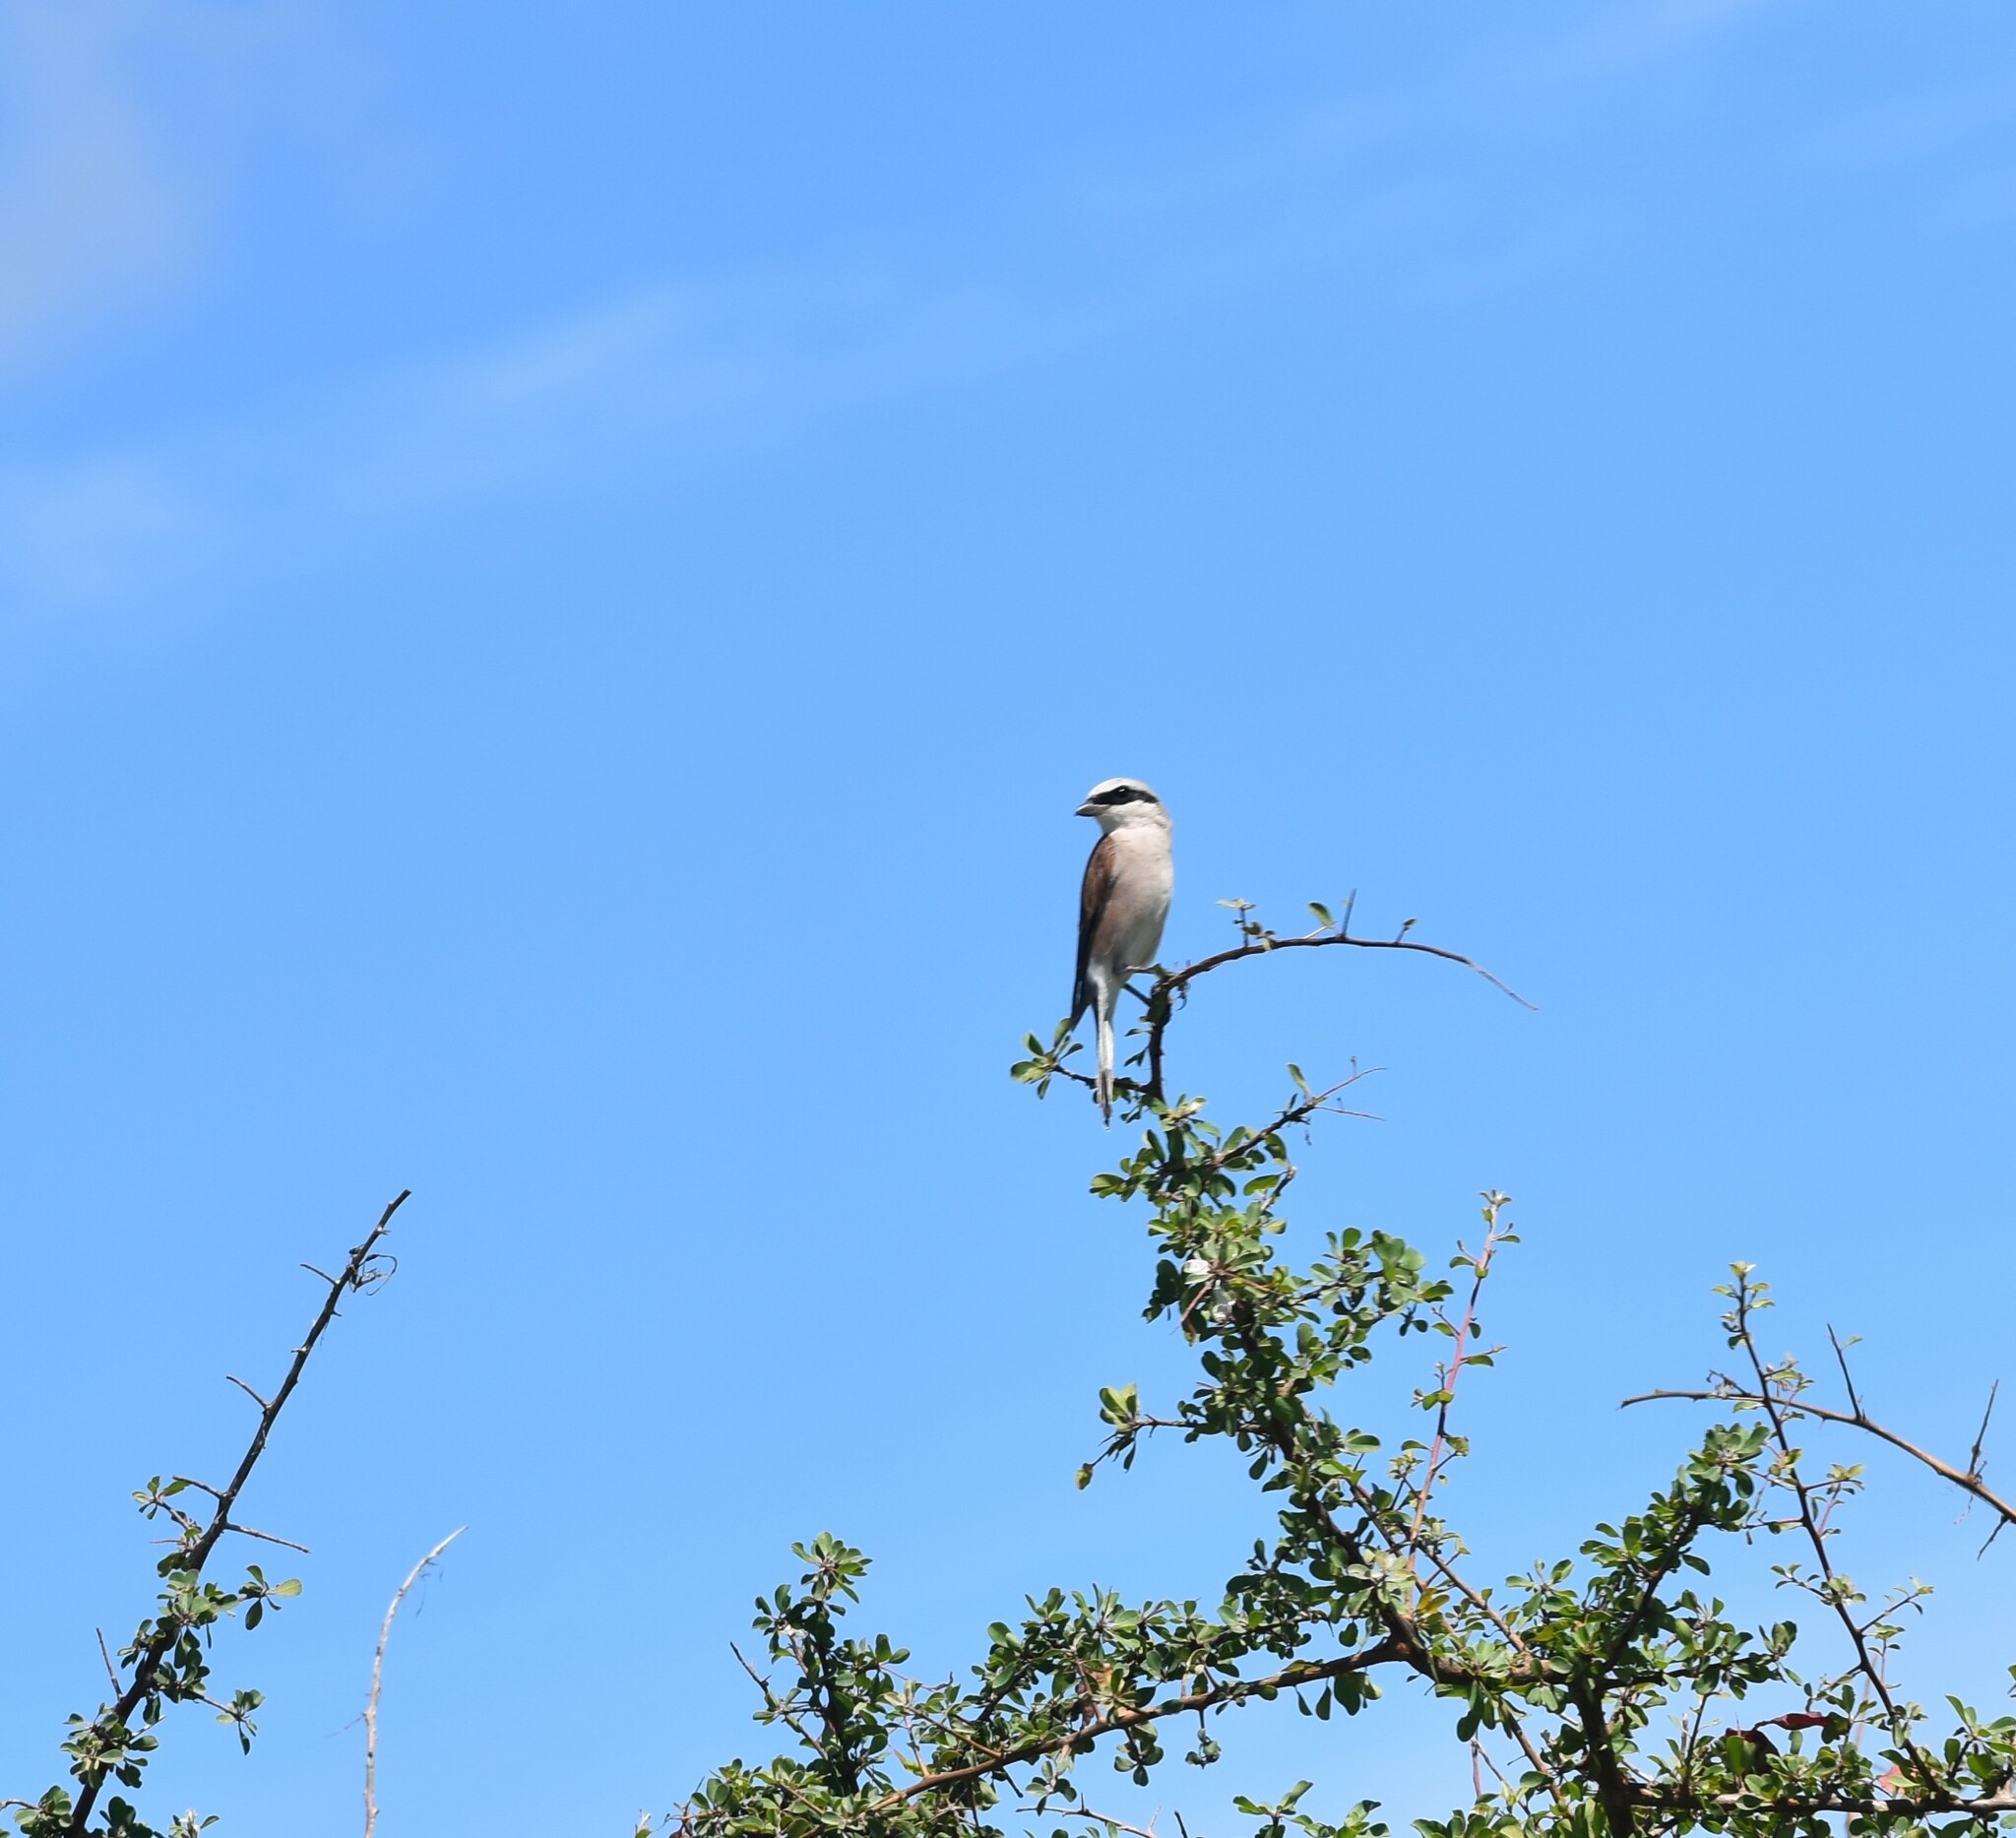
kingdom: Animalia
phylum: Chordata
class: Aves
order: Passeriformes
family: Laniidae
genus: Lanius
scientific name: Lanius collurio
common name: Red-backed shrike
